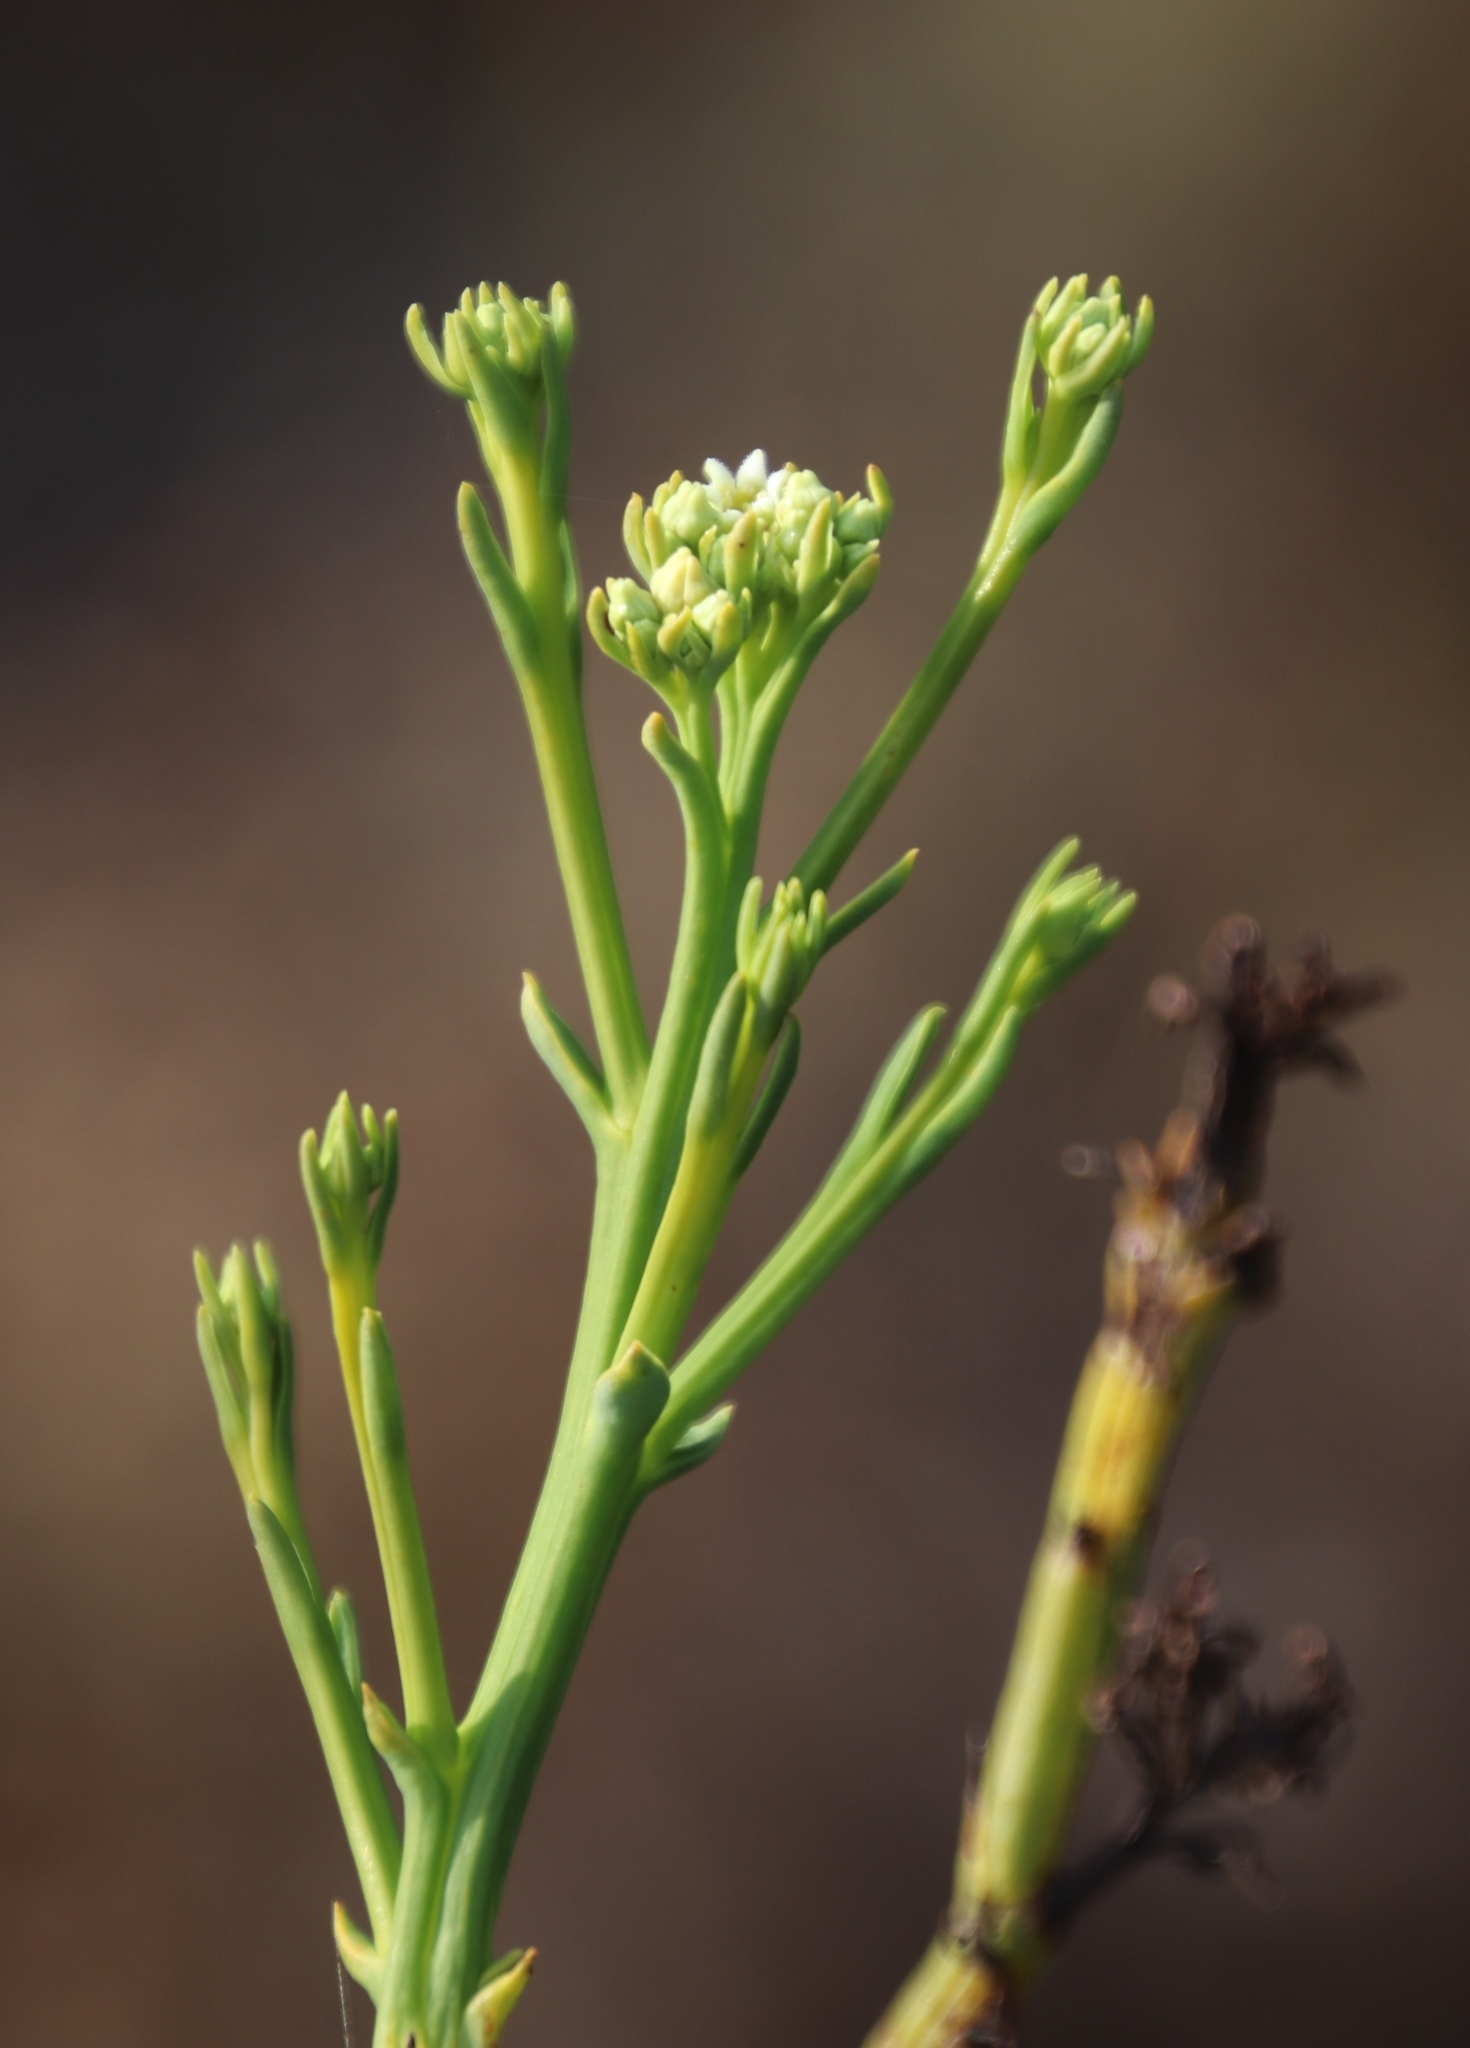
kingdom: Plantae
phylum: Tracheophyta
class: Magnoliopsida
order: Santalales
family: Thesiaceae
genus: Thesium
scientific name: Thesium strictum
